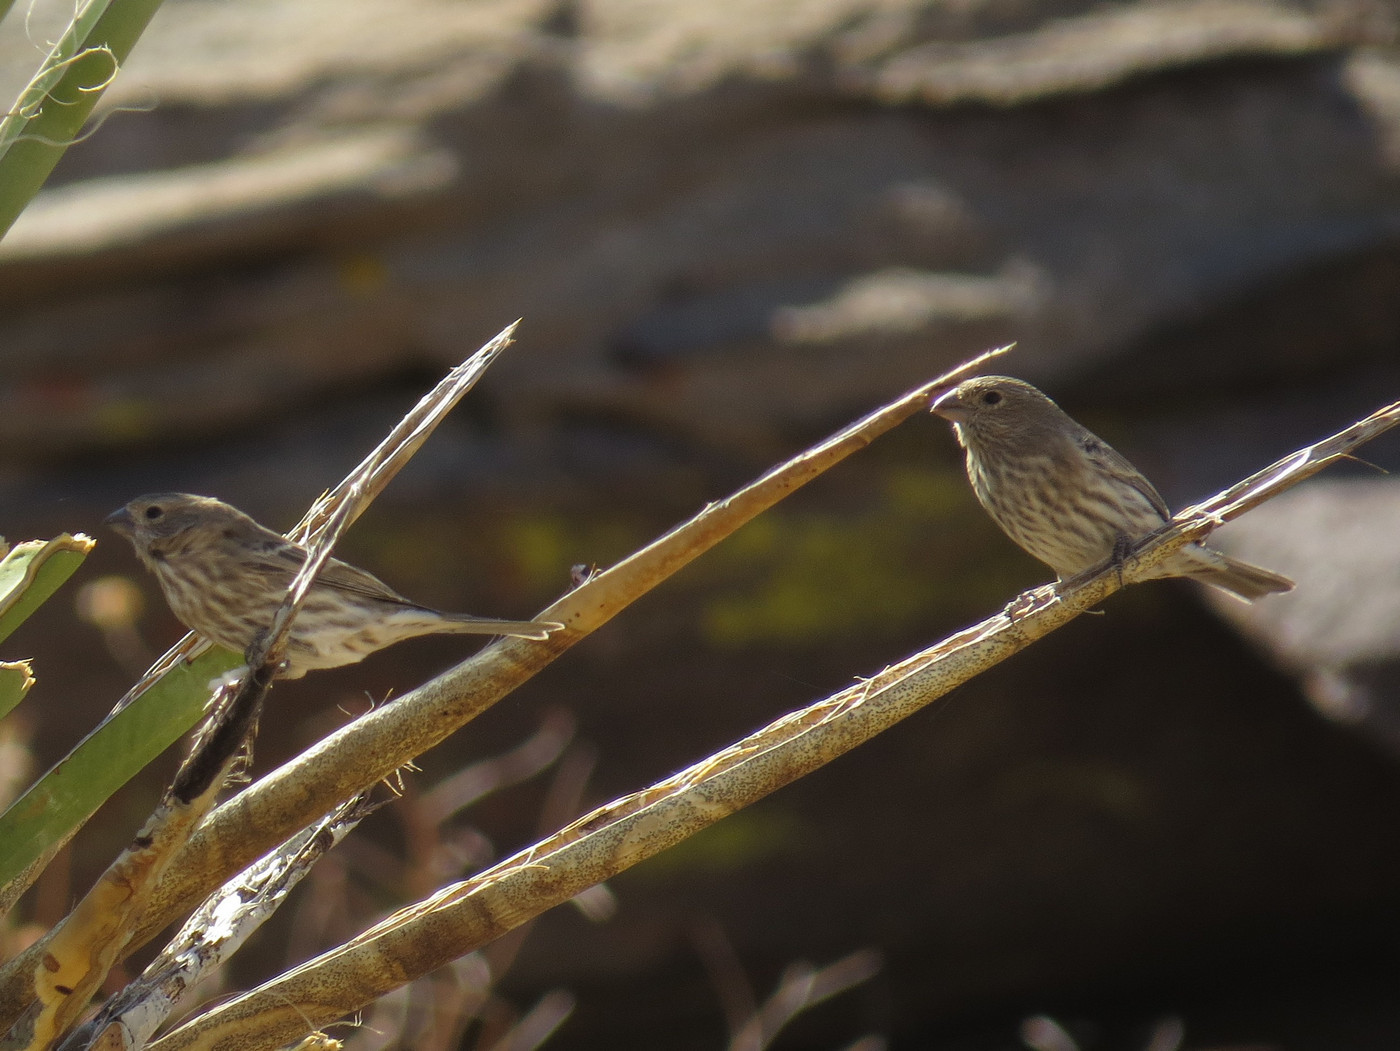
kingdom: Animalia
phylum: Chordata
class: Aves
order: Passeriformes
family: Fringillidae
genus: Haemorhous
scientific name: Haemorhous mexicanus
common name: House finch
